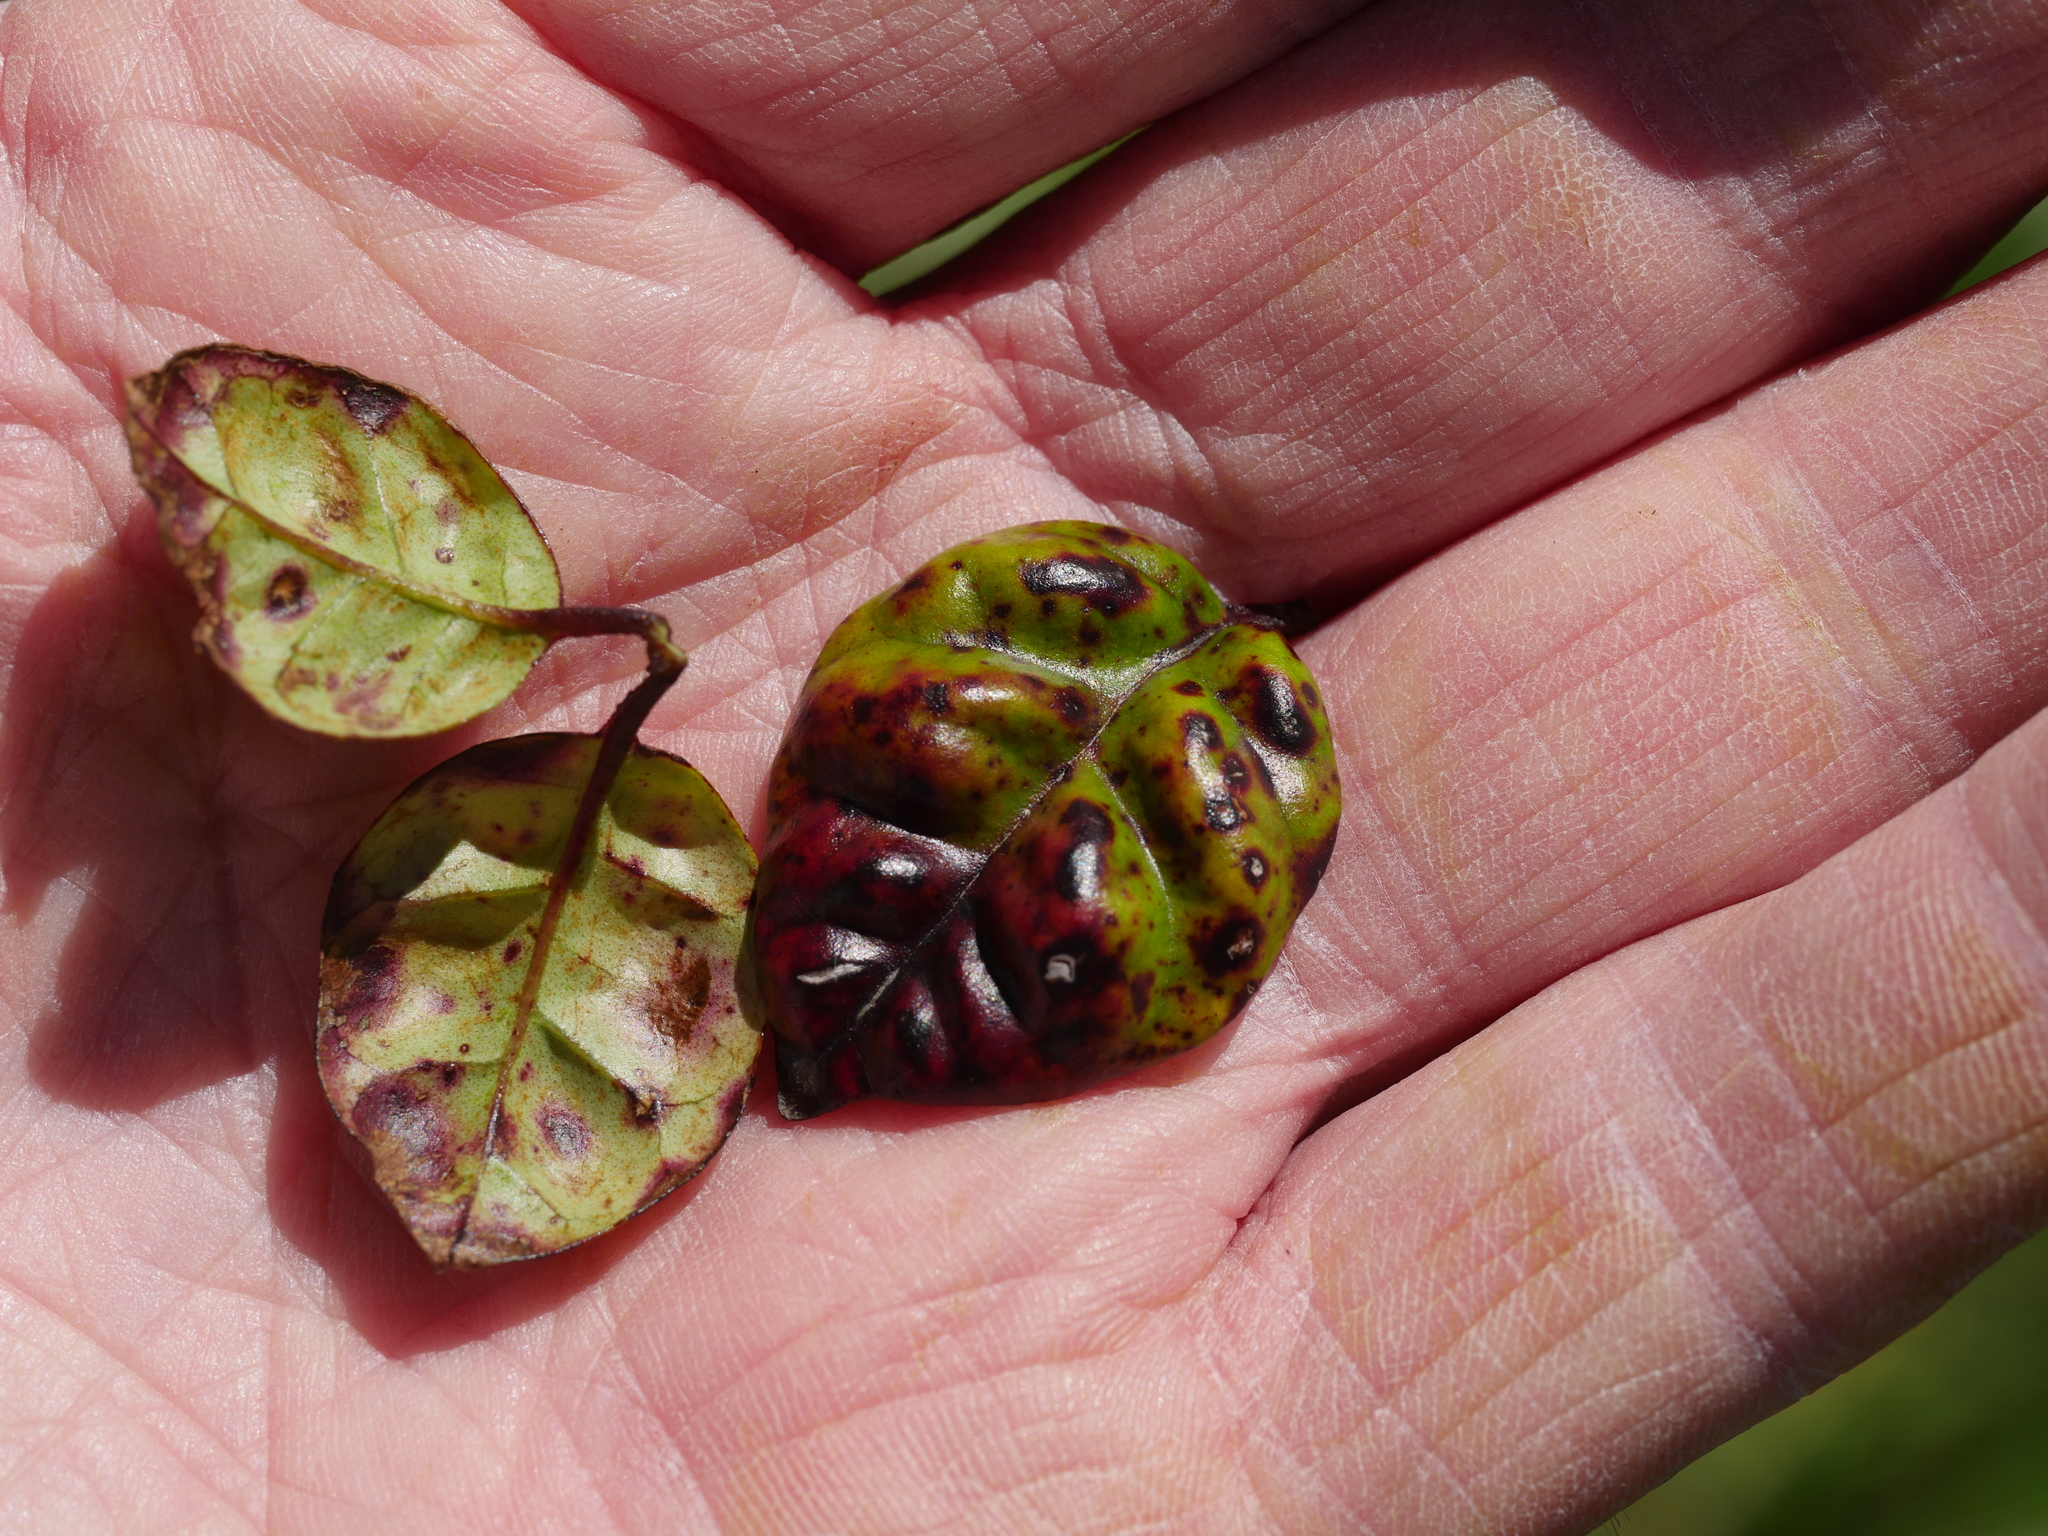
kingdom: Plantae
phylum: Tracheophyta
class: Magnoliopsida
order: Myrtales
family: Myrtaceae
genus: Lophomyrtus
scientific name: Lophomyrtus bullata
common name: Rama rama
